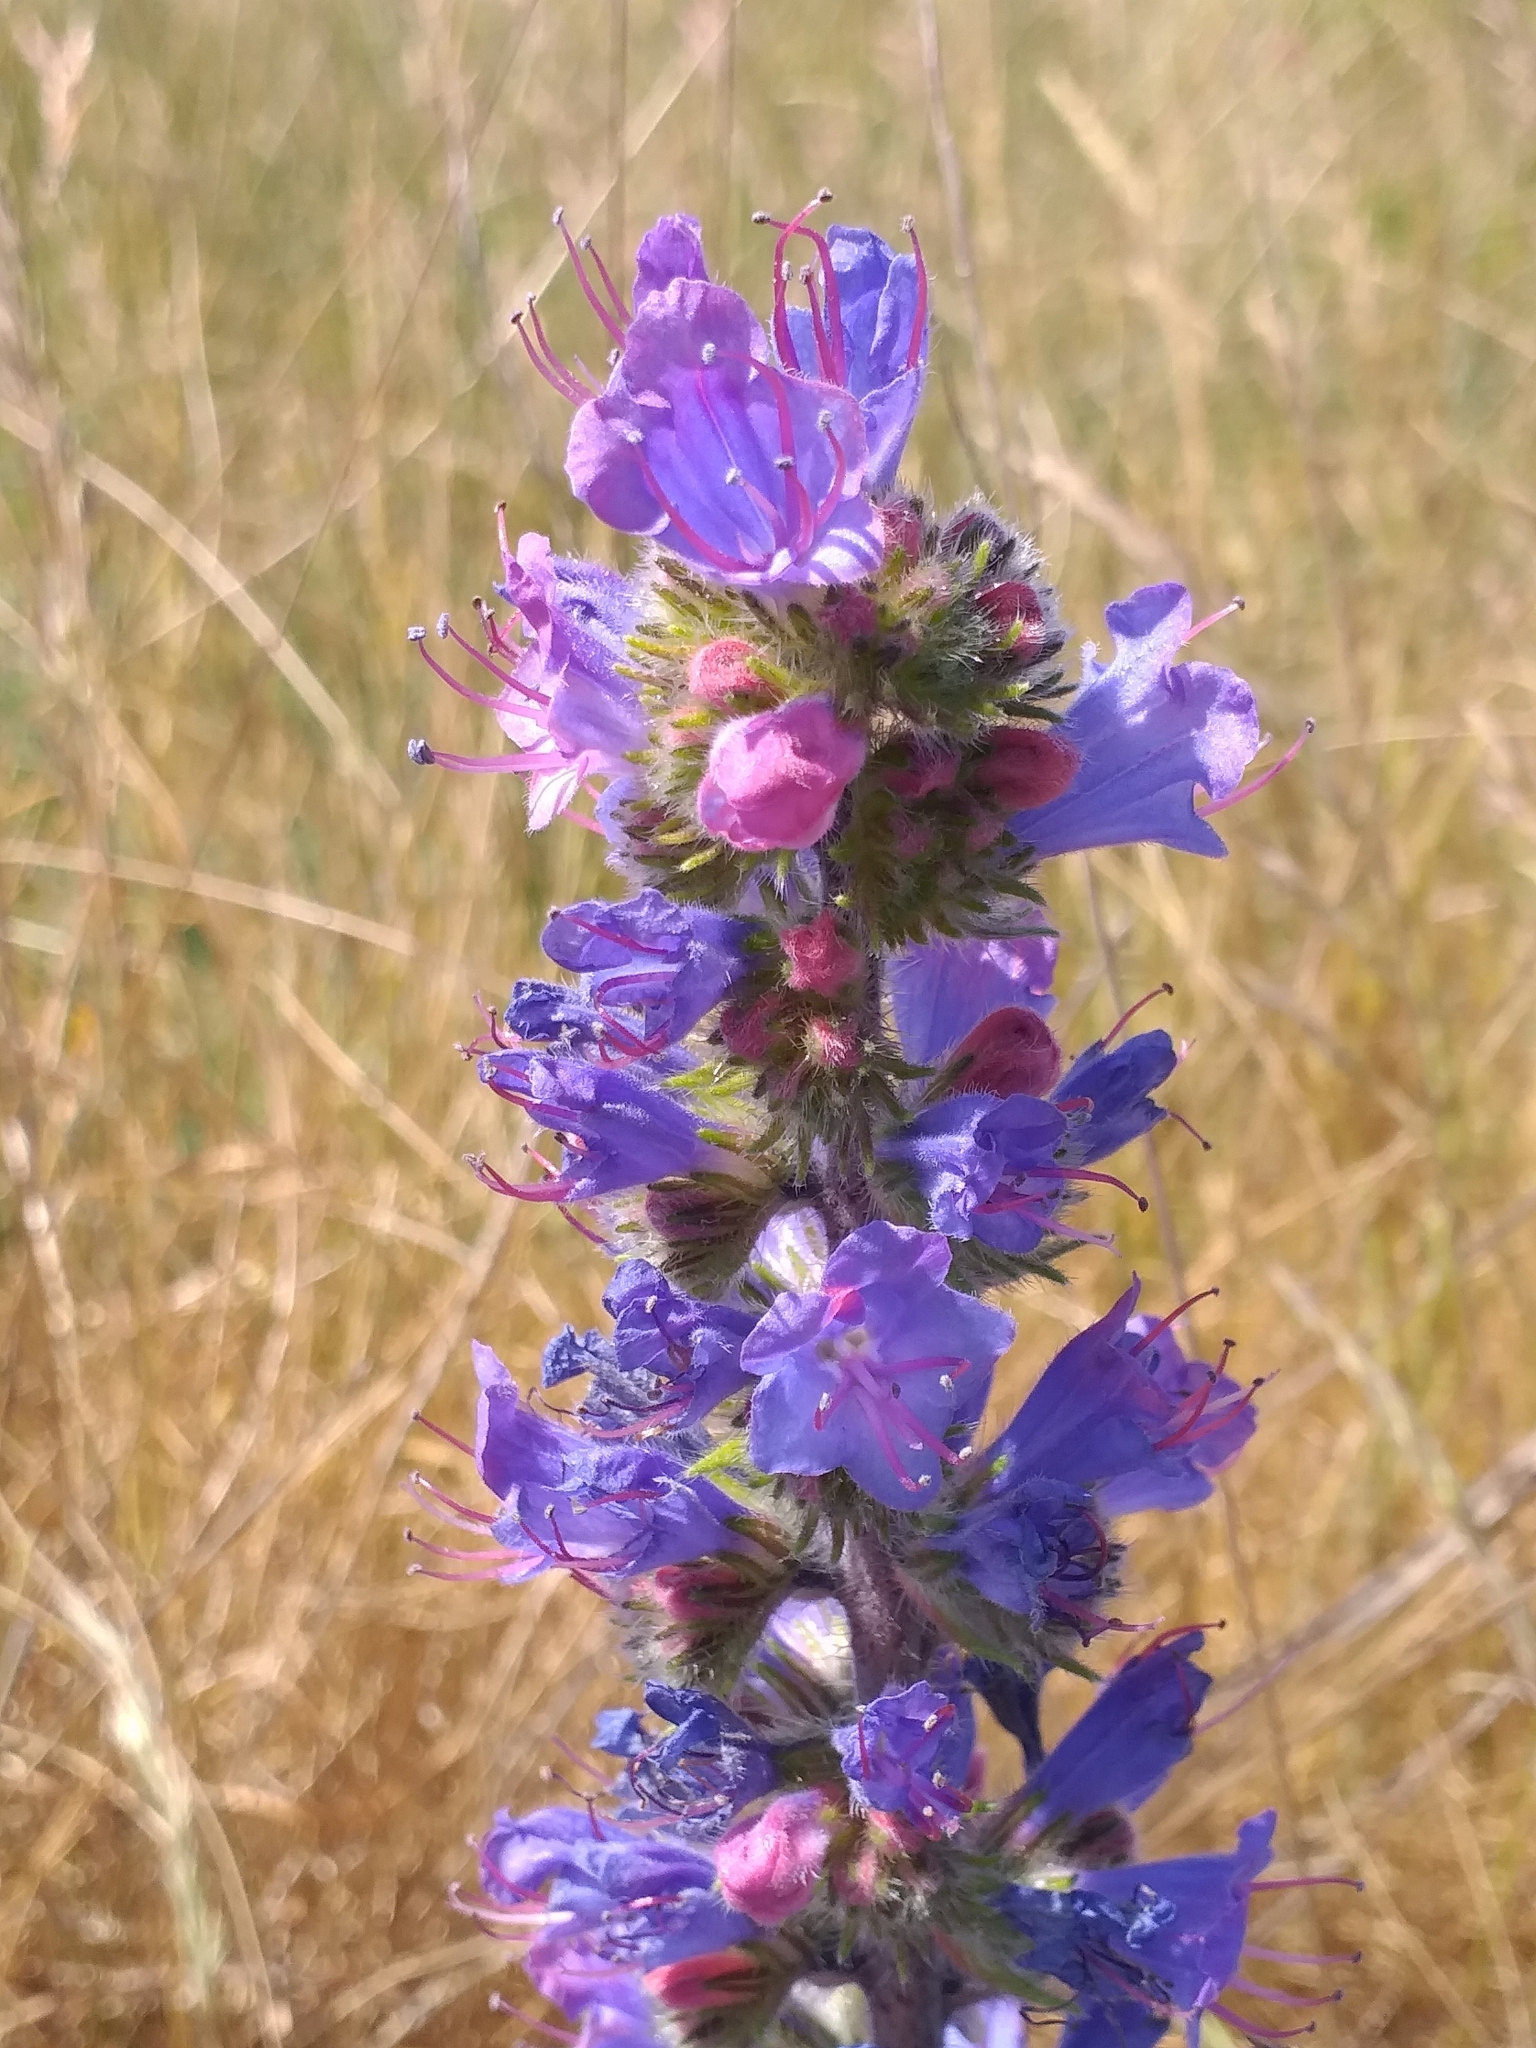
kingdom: Plantae
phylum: Tracheophyta
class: Magnoliopsida
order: Boraginales
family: Boraginaceae
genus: Echium
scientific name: Echium vulgare
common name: Common viper's bugloss
